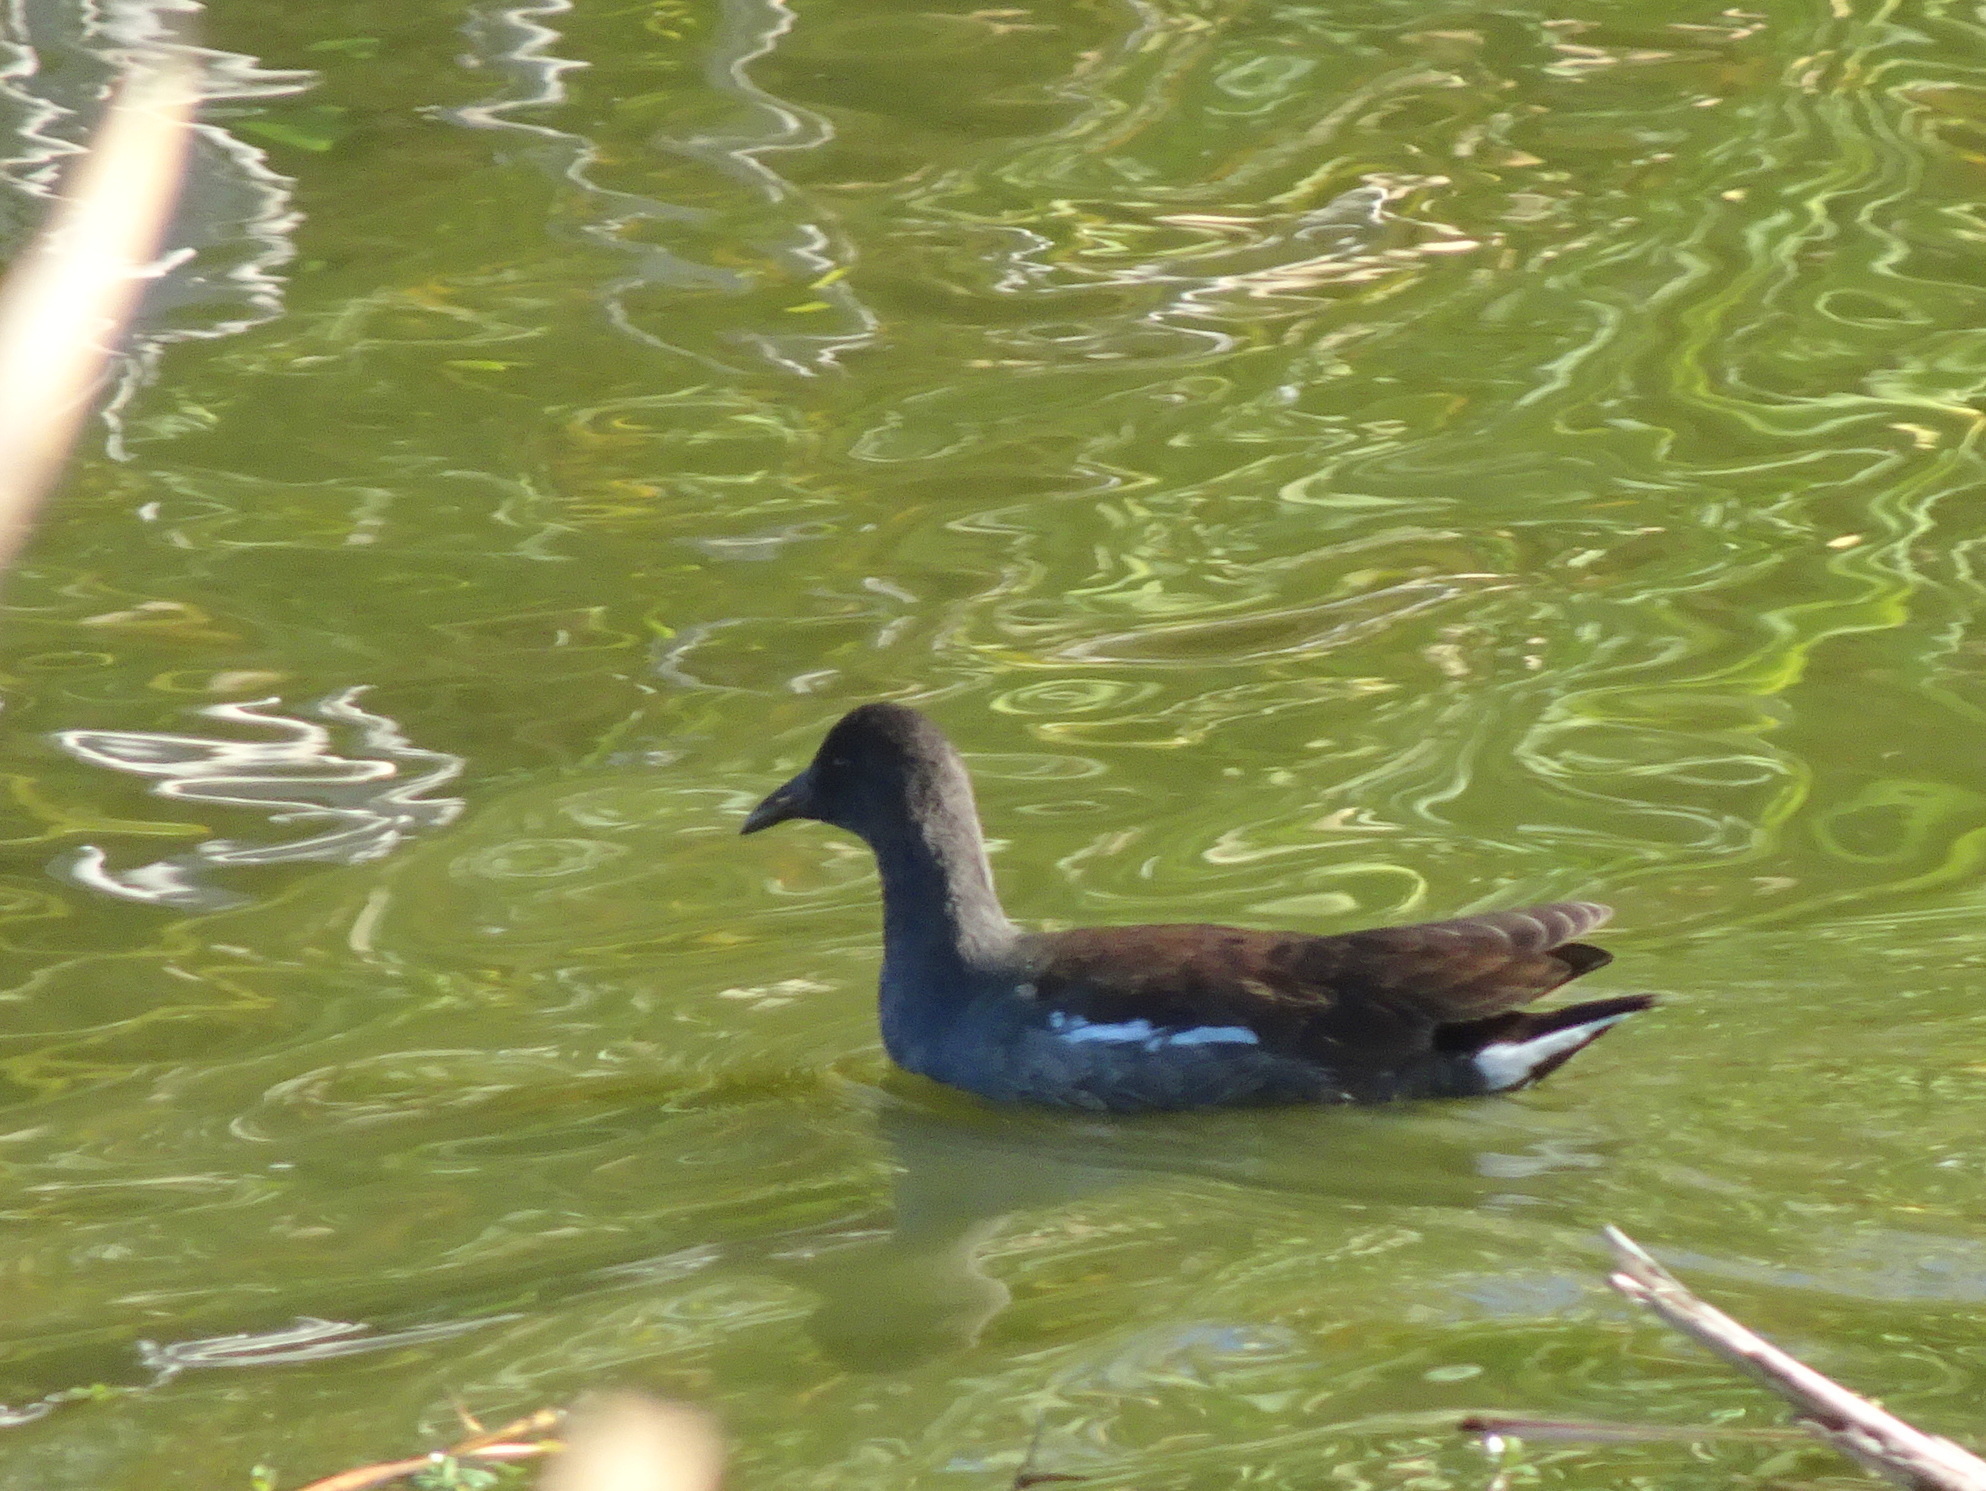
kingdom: Animalia
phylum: Chordata
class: Aves
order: Gruiformes
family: Rallidae
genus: Gallinula
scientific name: Gallinula chloropus
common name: Common moorhen
